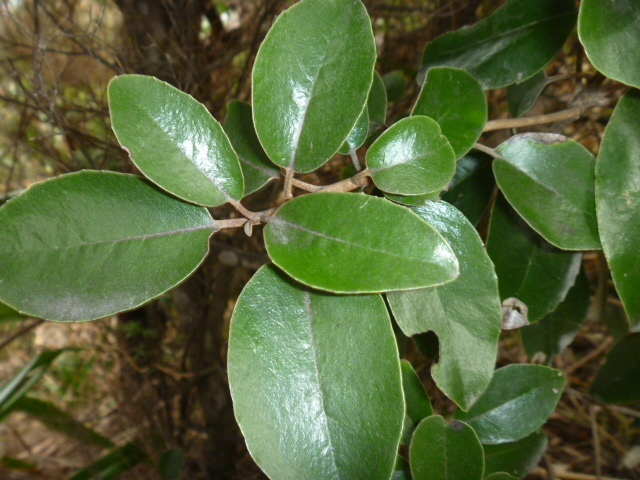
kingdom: Plantae
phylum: Tracheophyta
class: Magnoliopsida
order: Asterales
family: Asteraceae
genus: Olearia
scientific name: Olearia furfuracea
